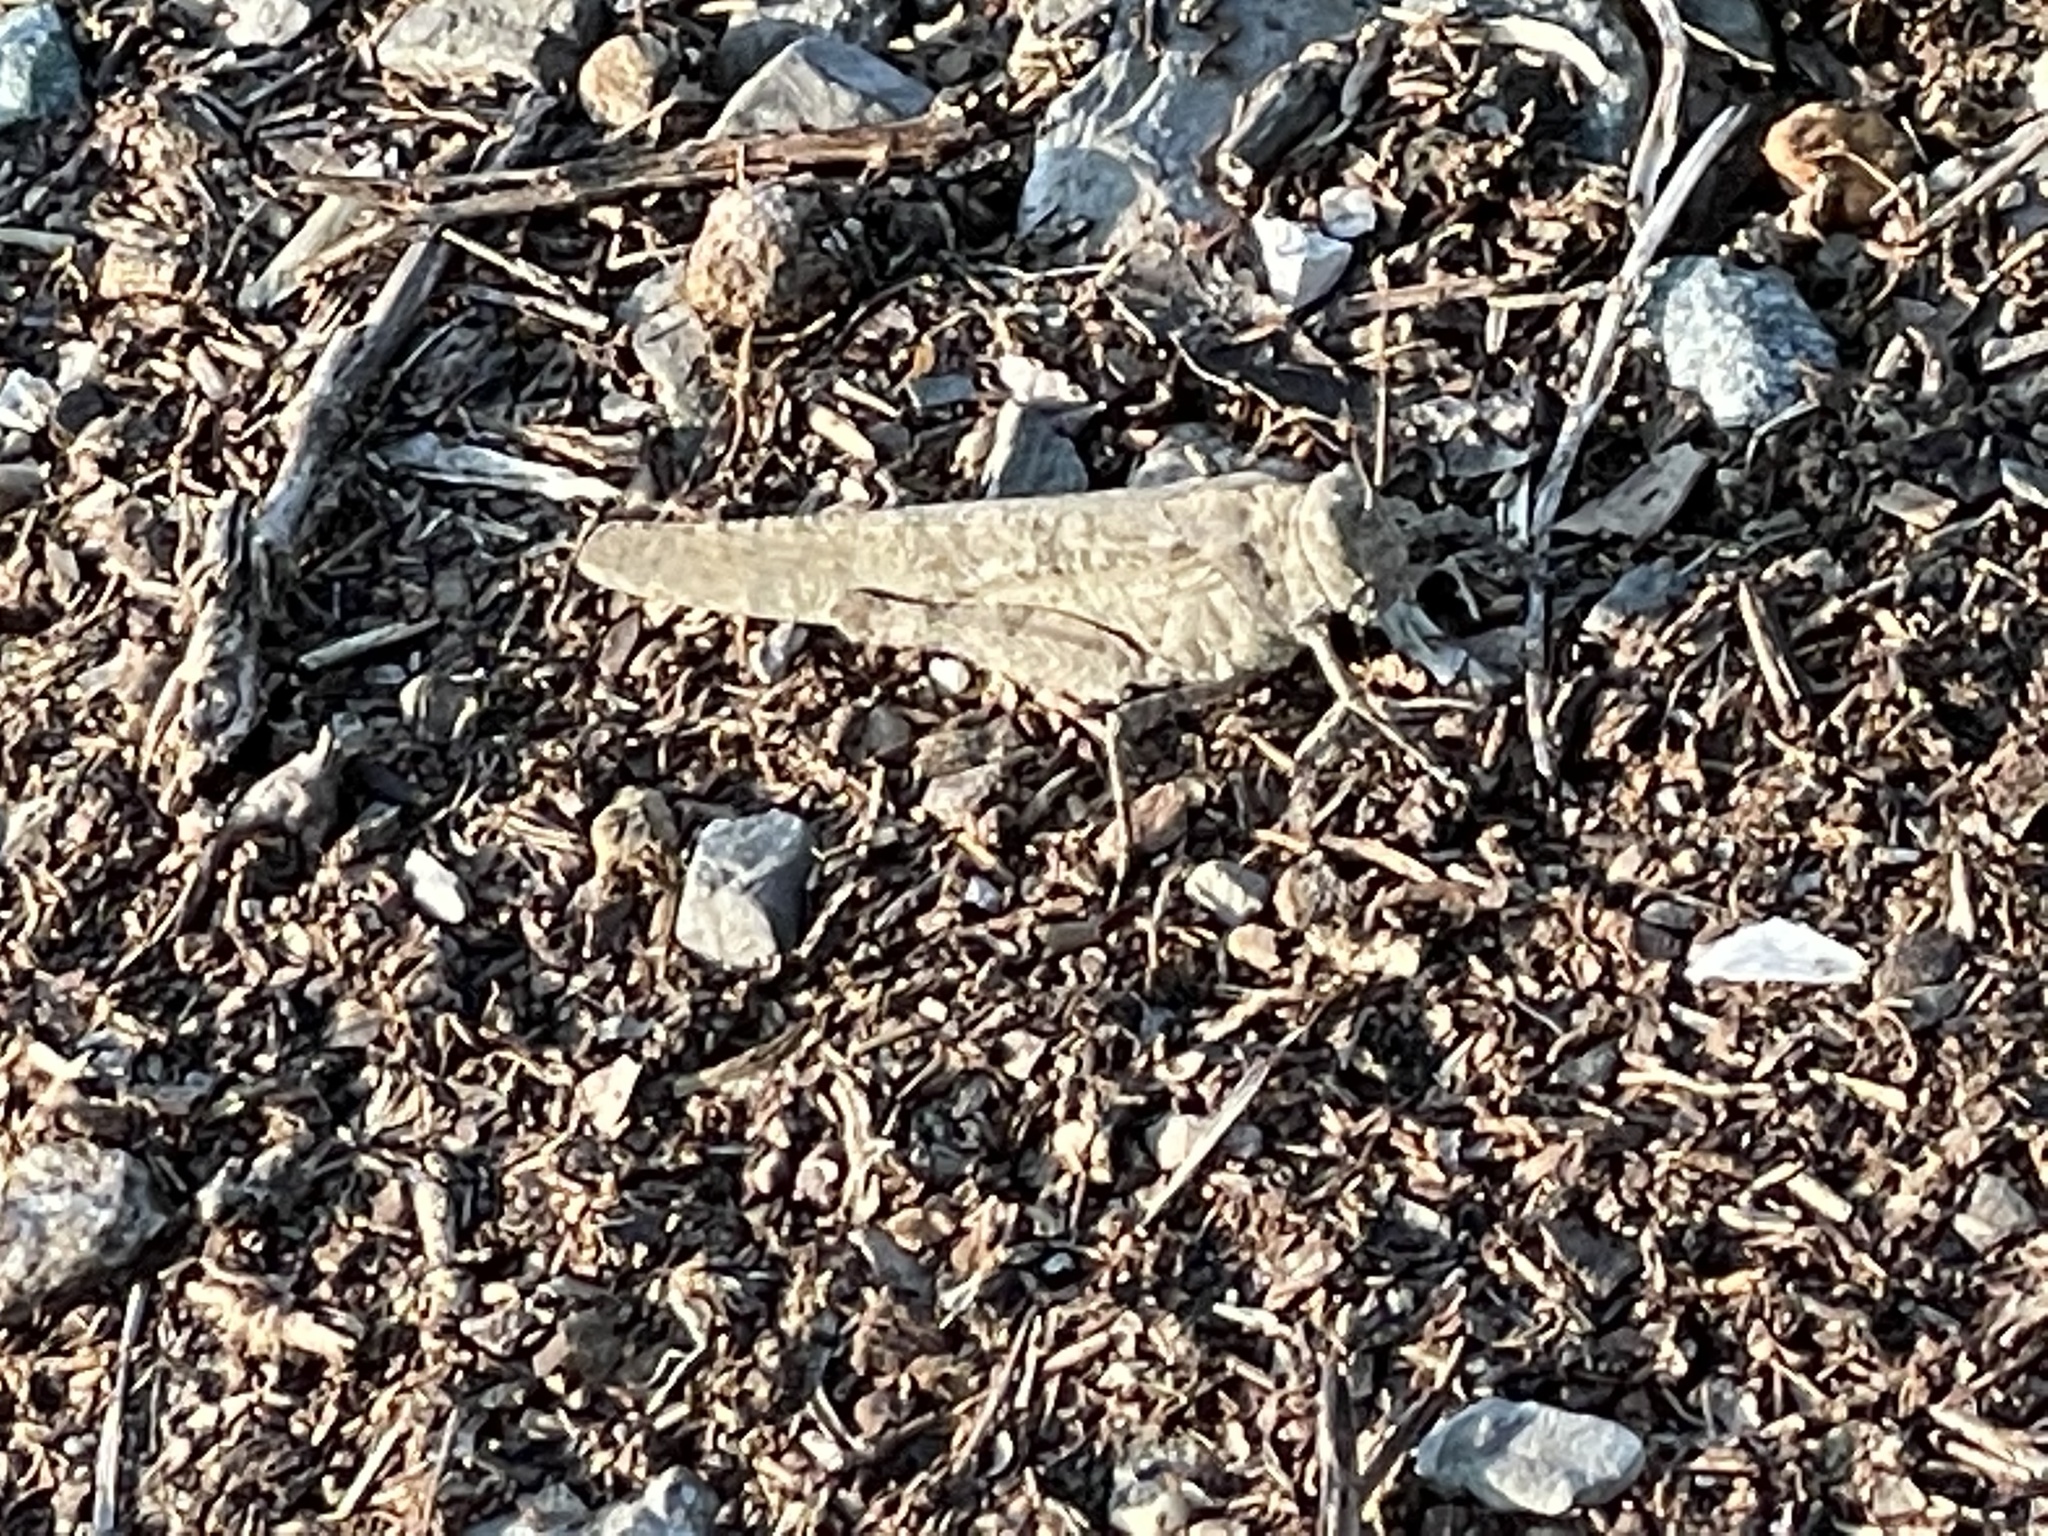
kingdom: Animalia
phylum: Arthropoda
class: Insecta
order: Orthoptera
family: Acrididae
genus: Dissosteira
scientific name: Dissosteira carolina
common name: Carolina grasshopper
